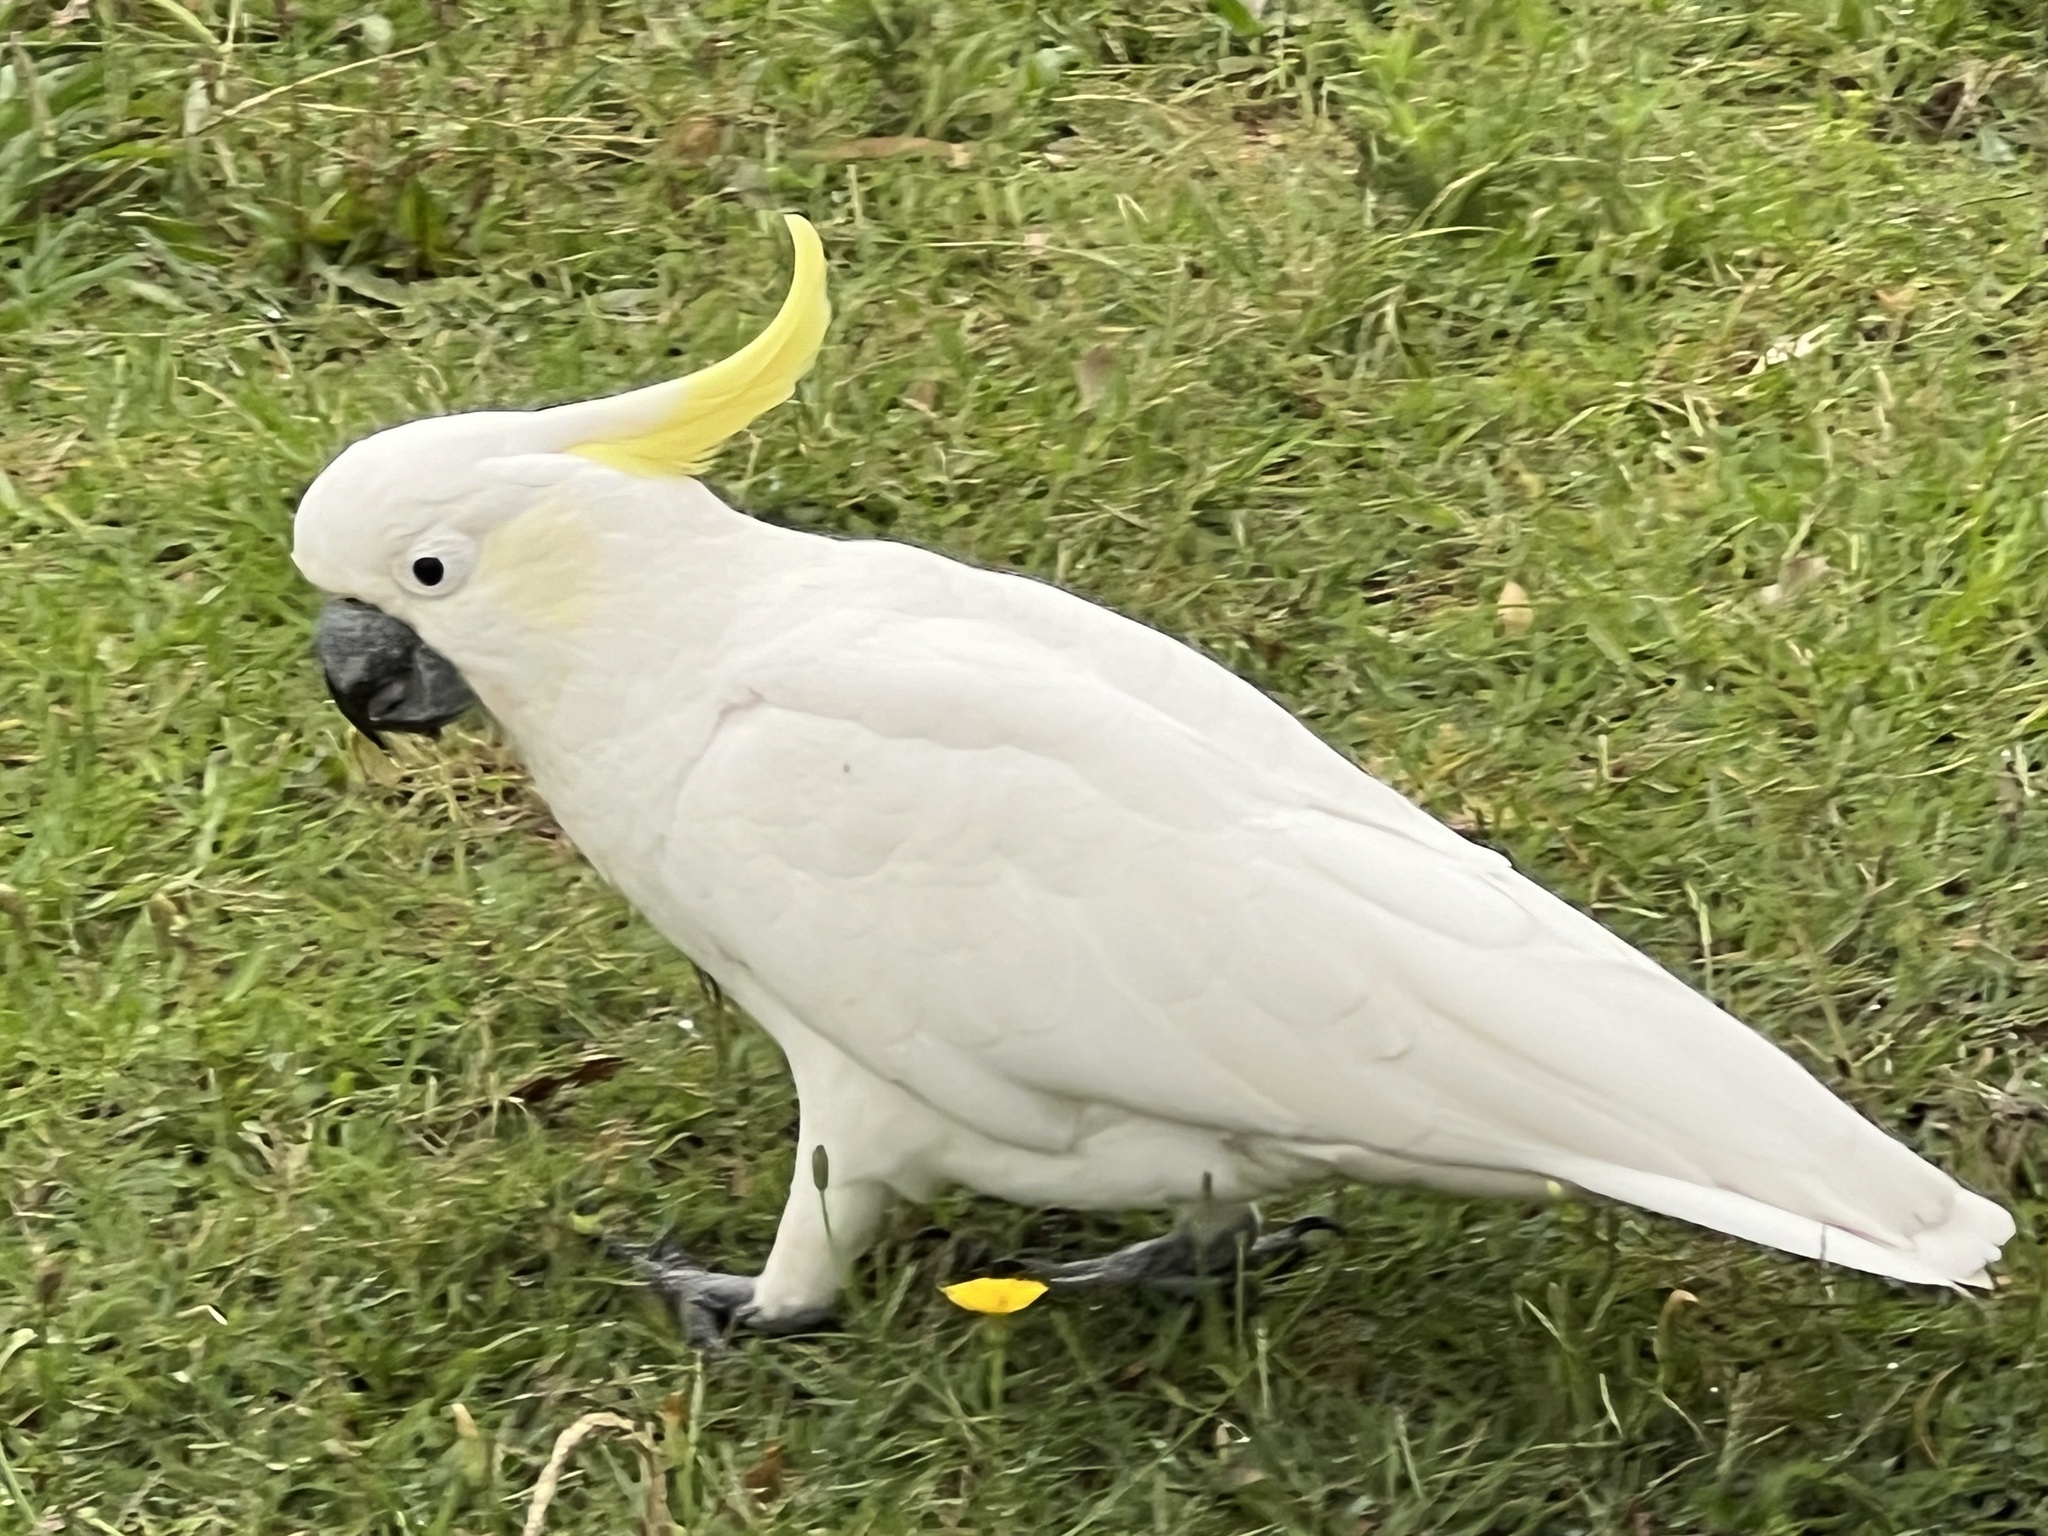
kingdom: Animalia
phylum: Chordata
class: Aves
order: Psittaciformes
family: Psittacidae
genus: Cacatua
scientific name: Cacatua galerita
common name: Sulphur-crested cockatoo
